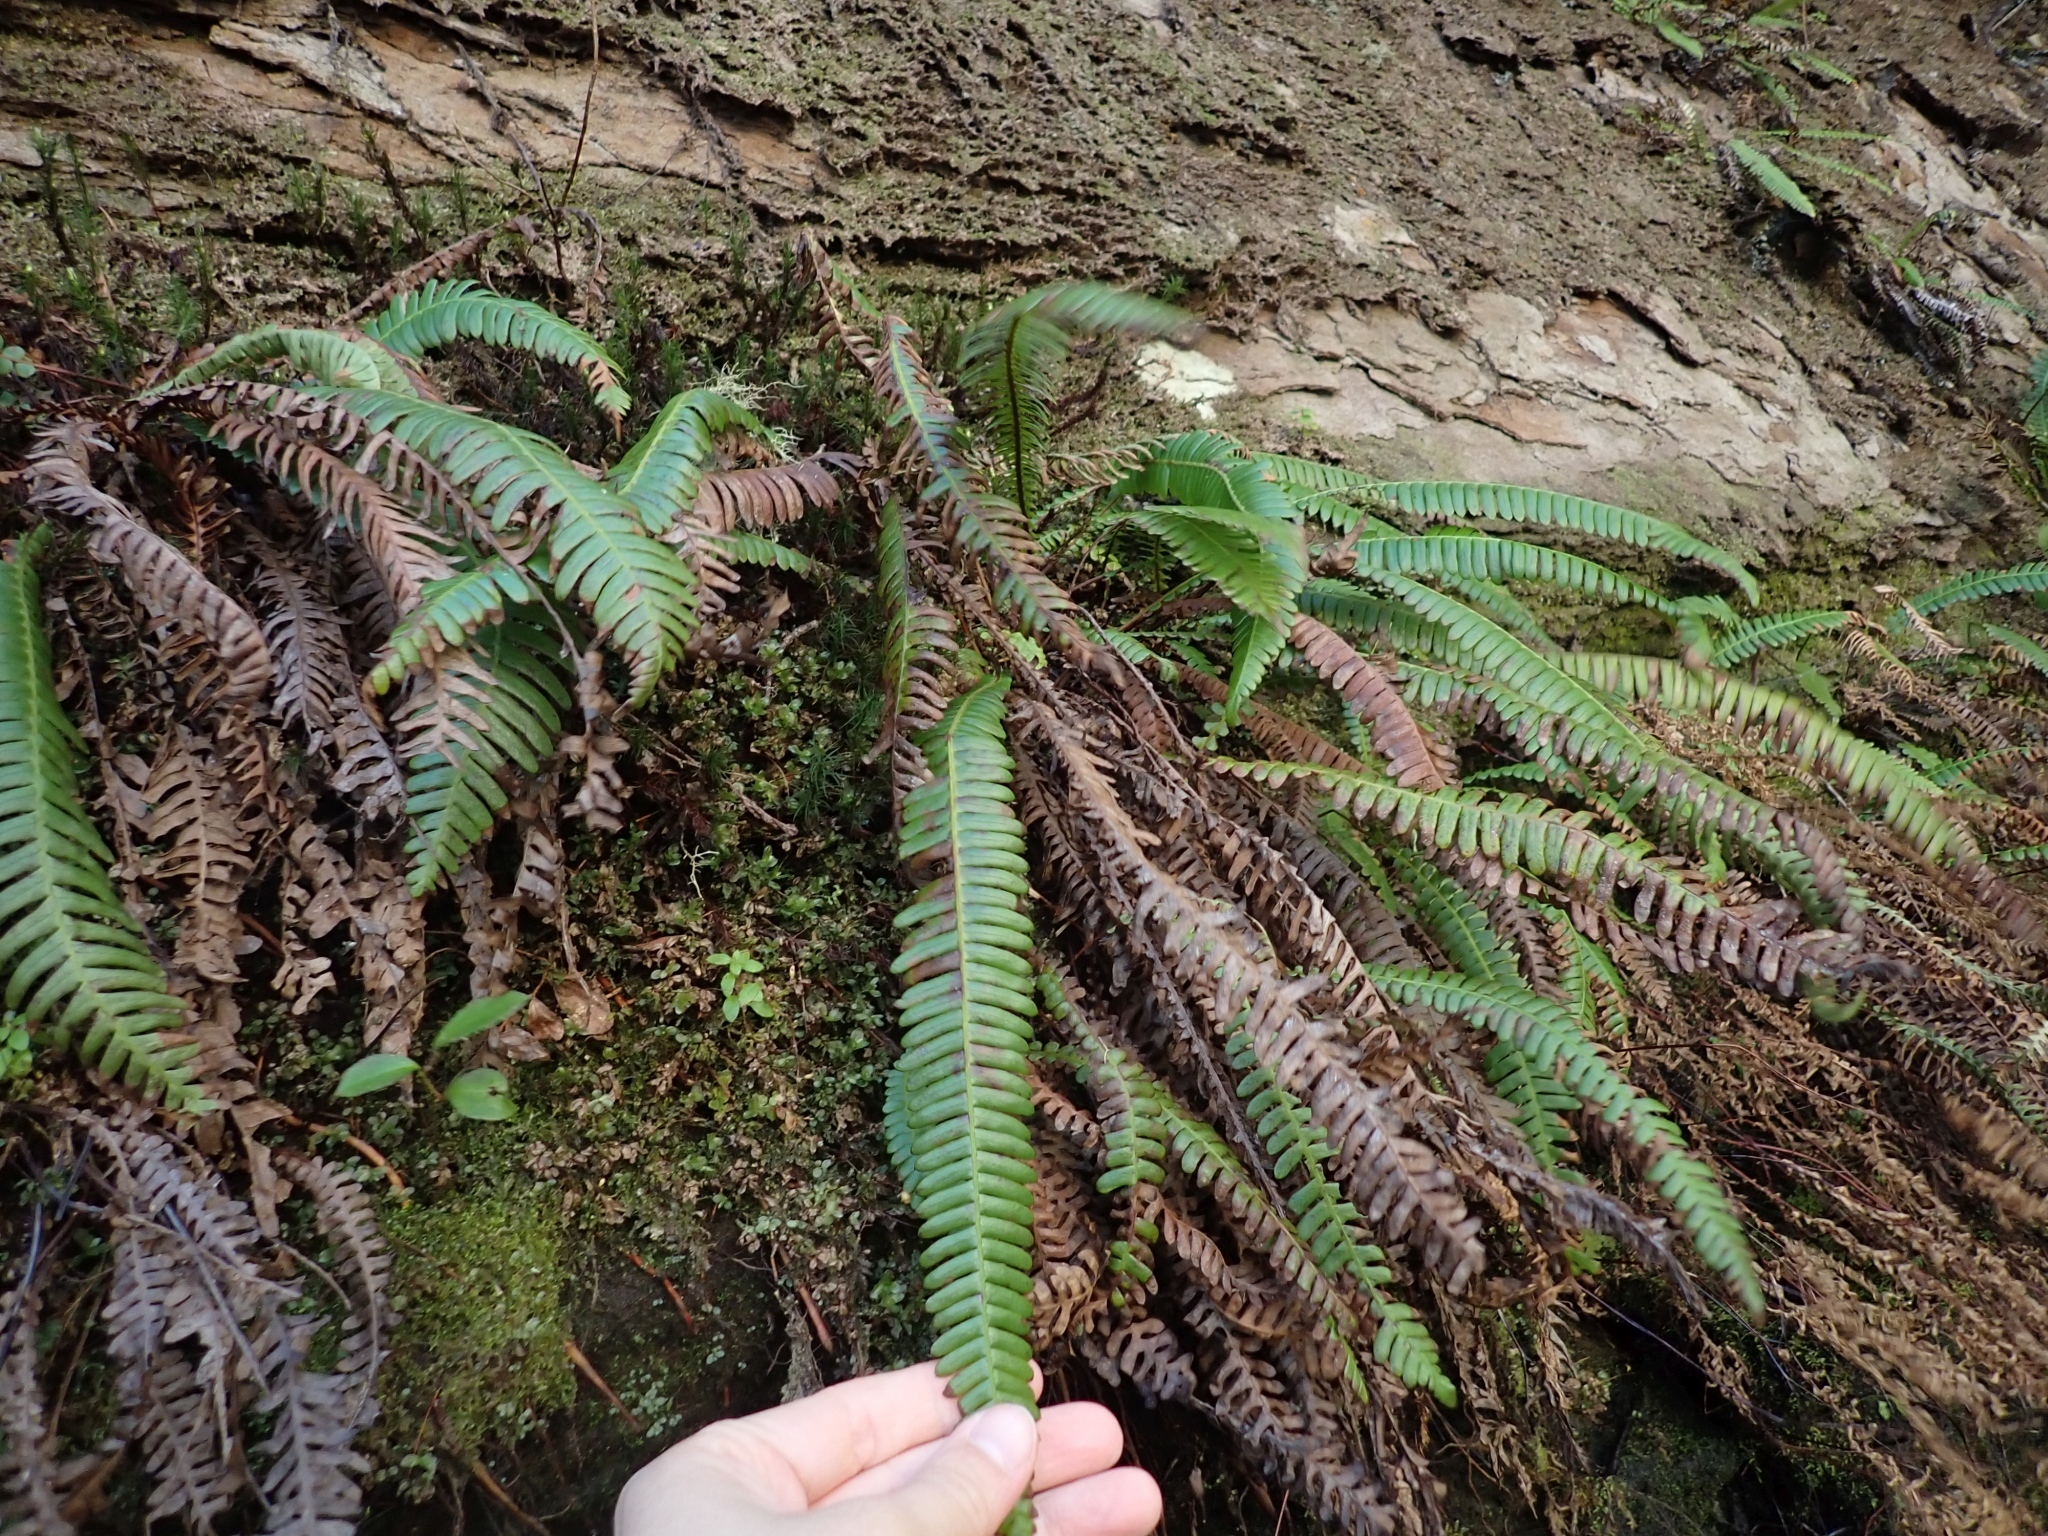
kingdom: Plantae
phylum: Tracheophyta
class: Polypodiopsida
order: Polypodiales
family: Blechnaceae
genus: Struthiopteris
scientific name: Struthiopteris spicant
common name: Deer fern
